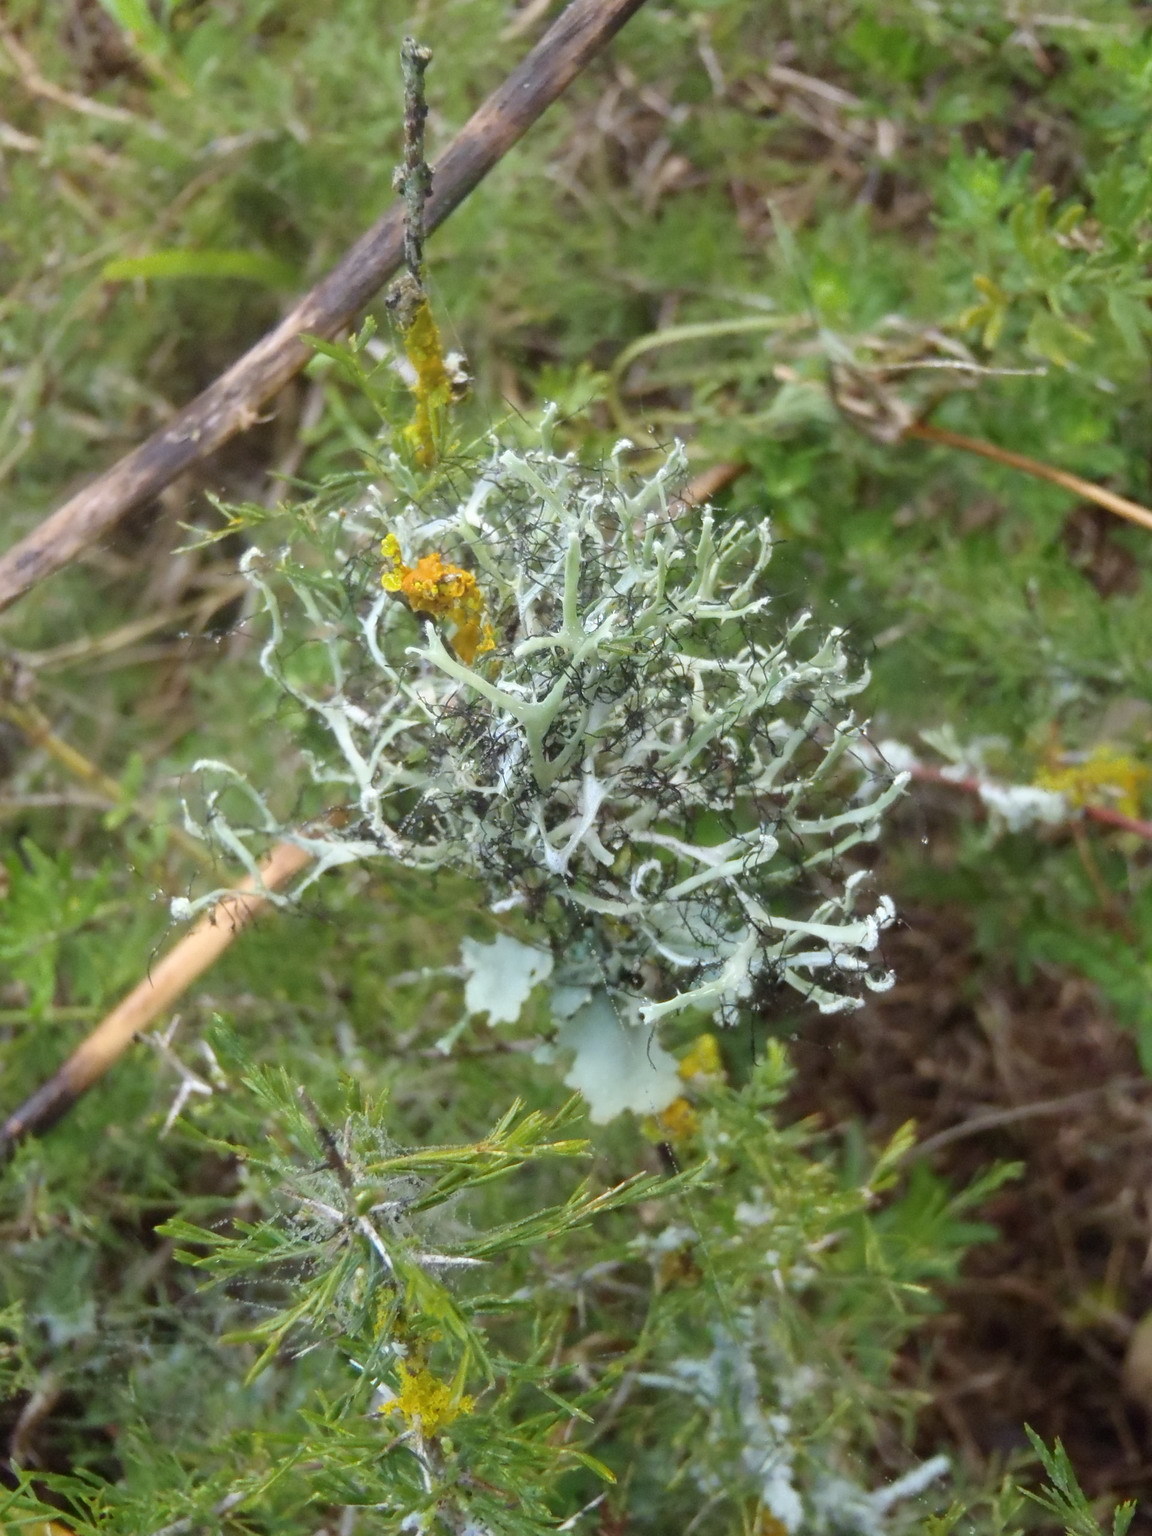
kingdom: Fungi
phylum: Ascomycota
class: Lecanoromycetes
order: Caliciales
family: Physciaceae
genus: Leucodermia
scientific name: Leucodermia leucomelos
